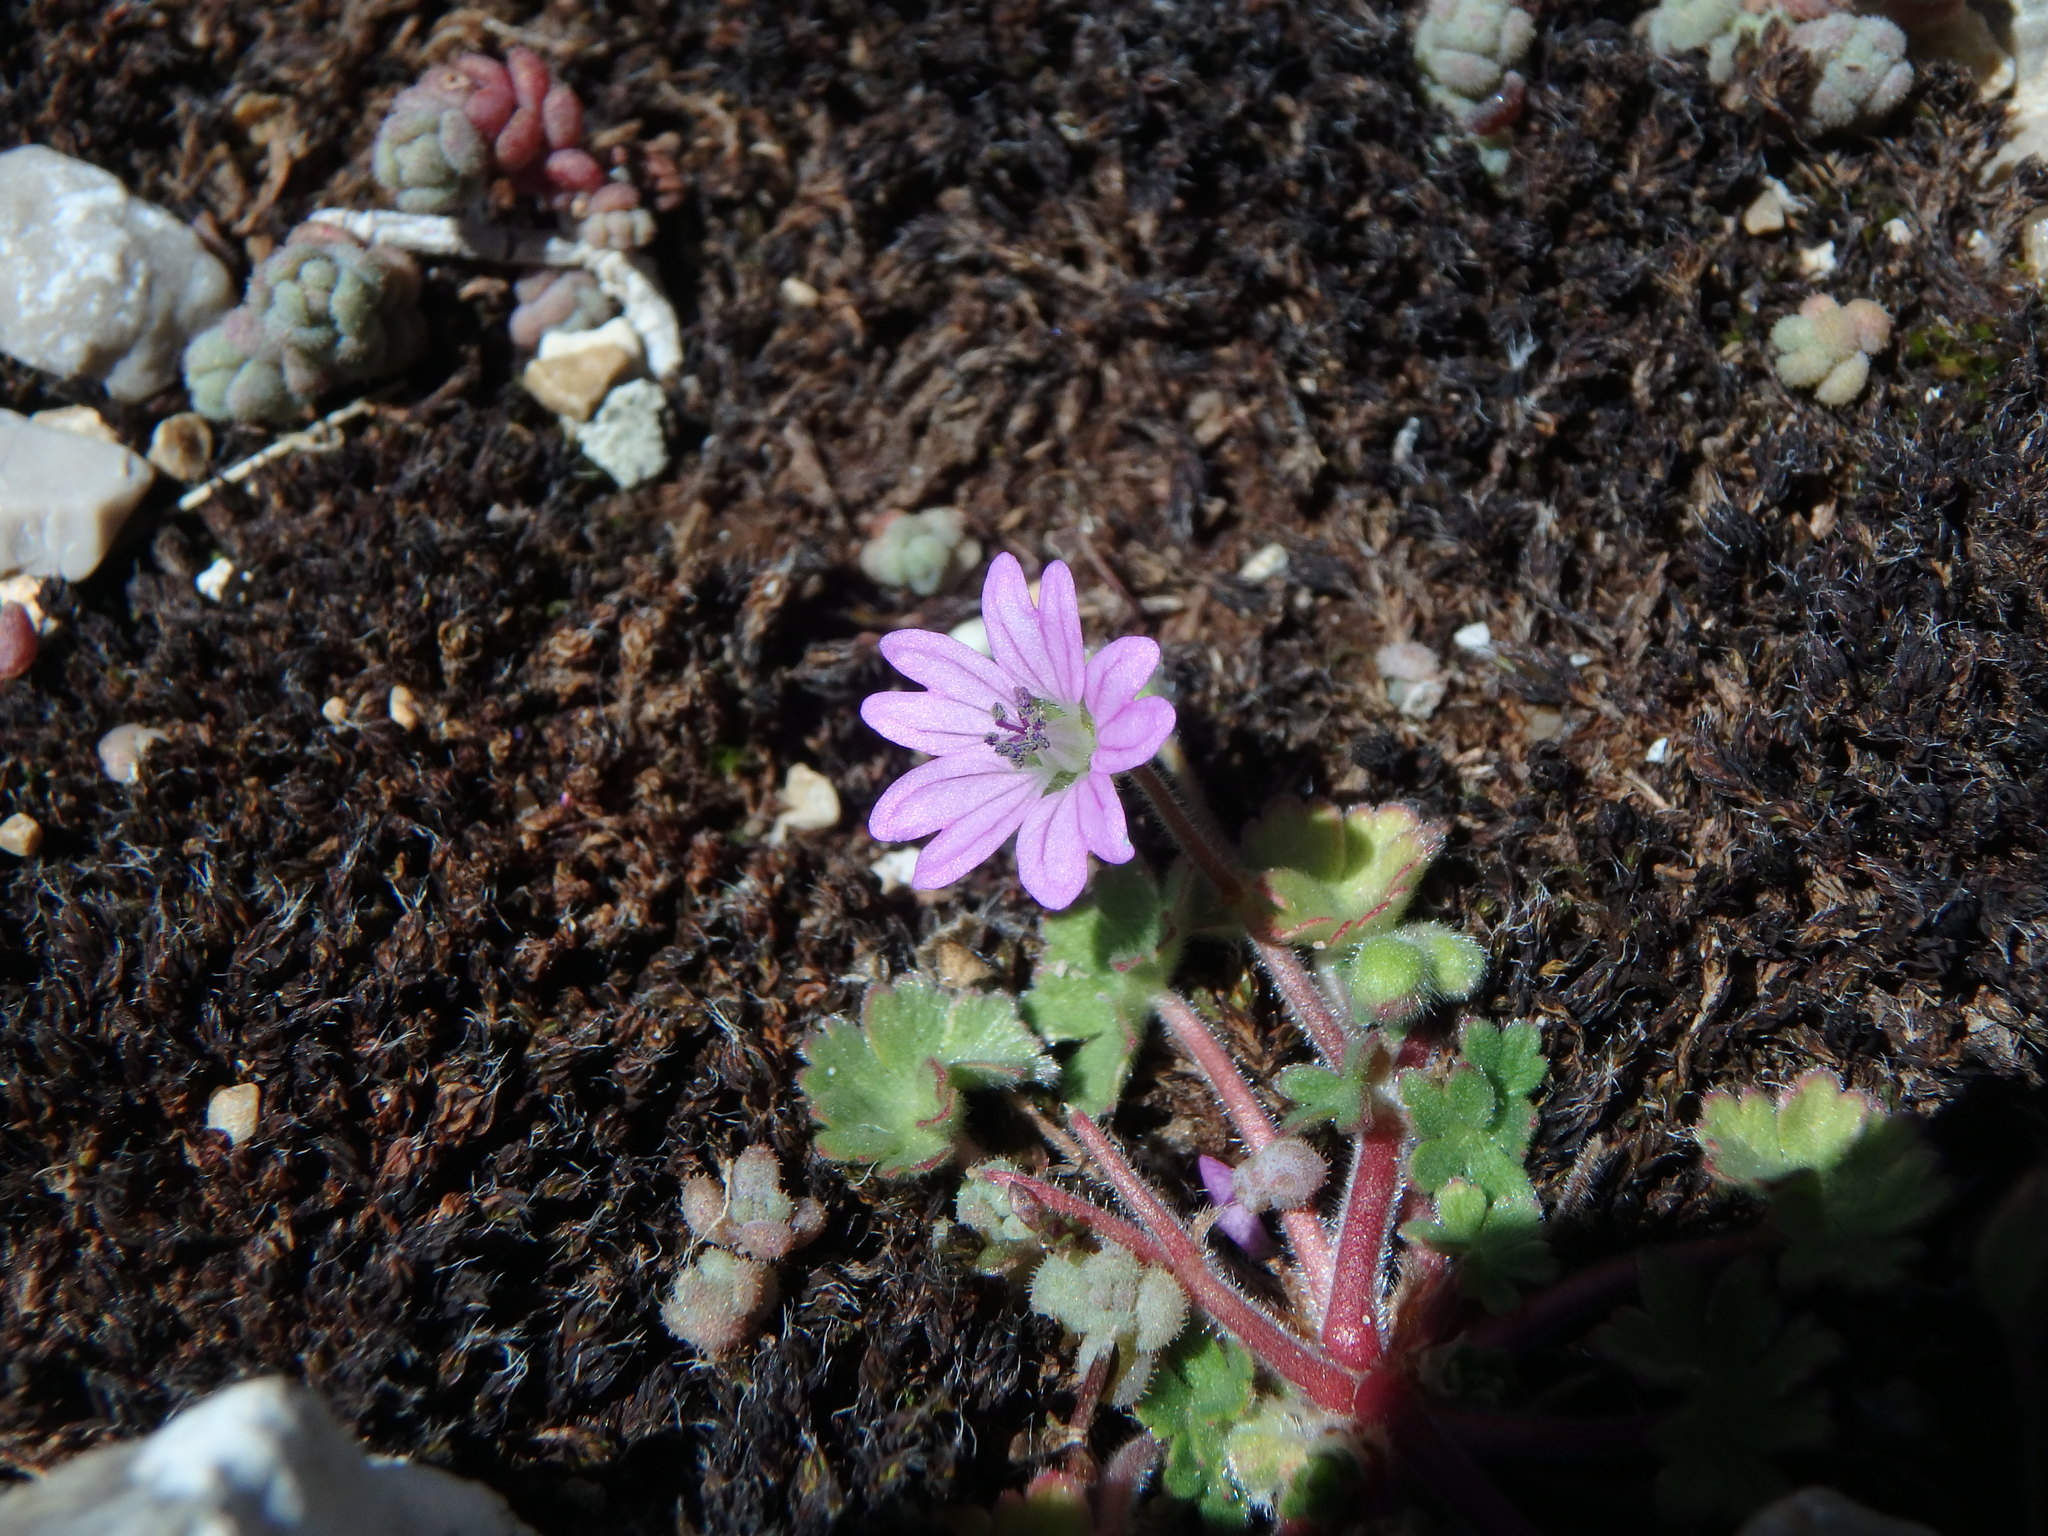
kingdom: Plantae
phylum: Tracheophyta
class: Magnoliopsida
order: Geraniales
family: Geraniaceae
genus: Geranium
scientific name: Geranium molle
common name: Dove's-foot crane's-bill
